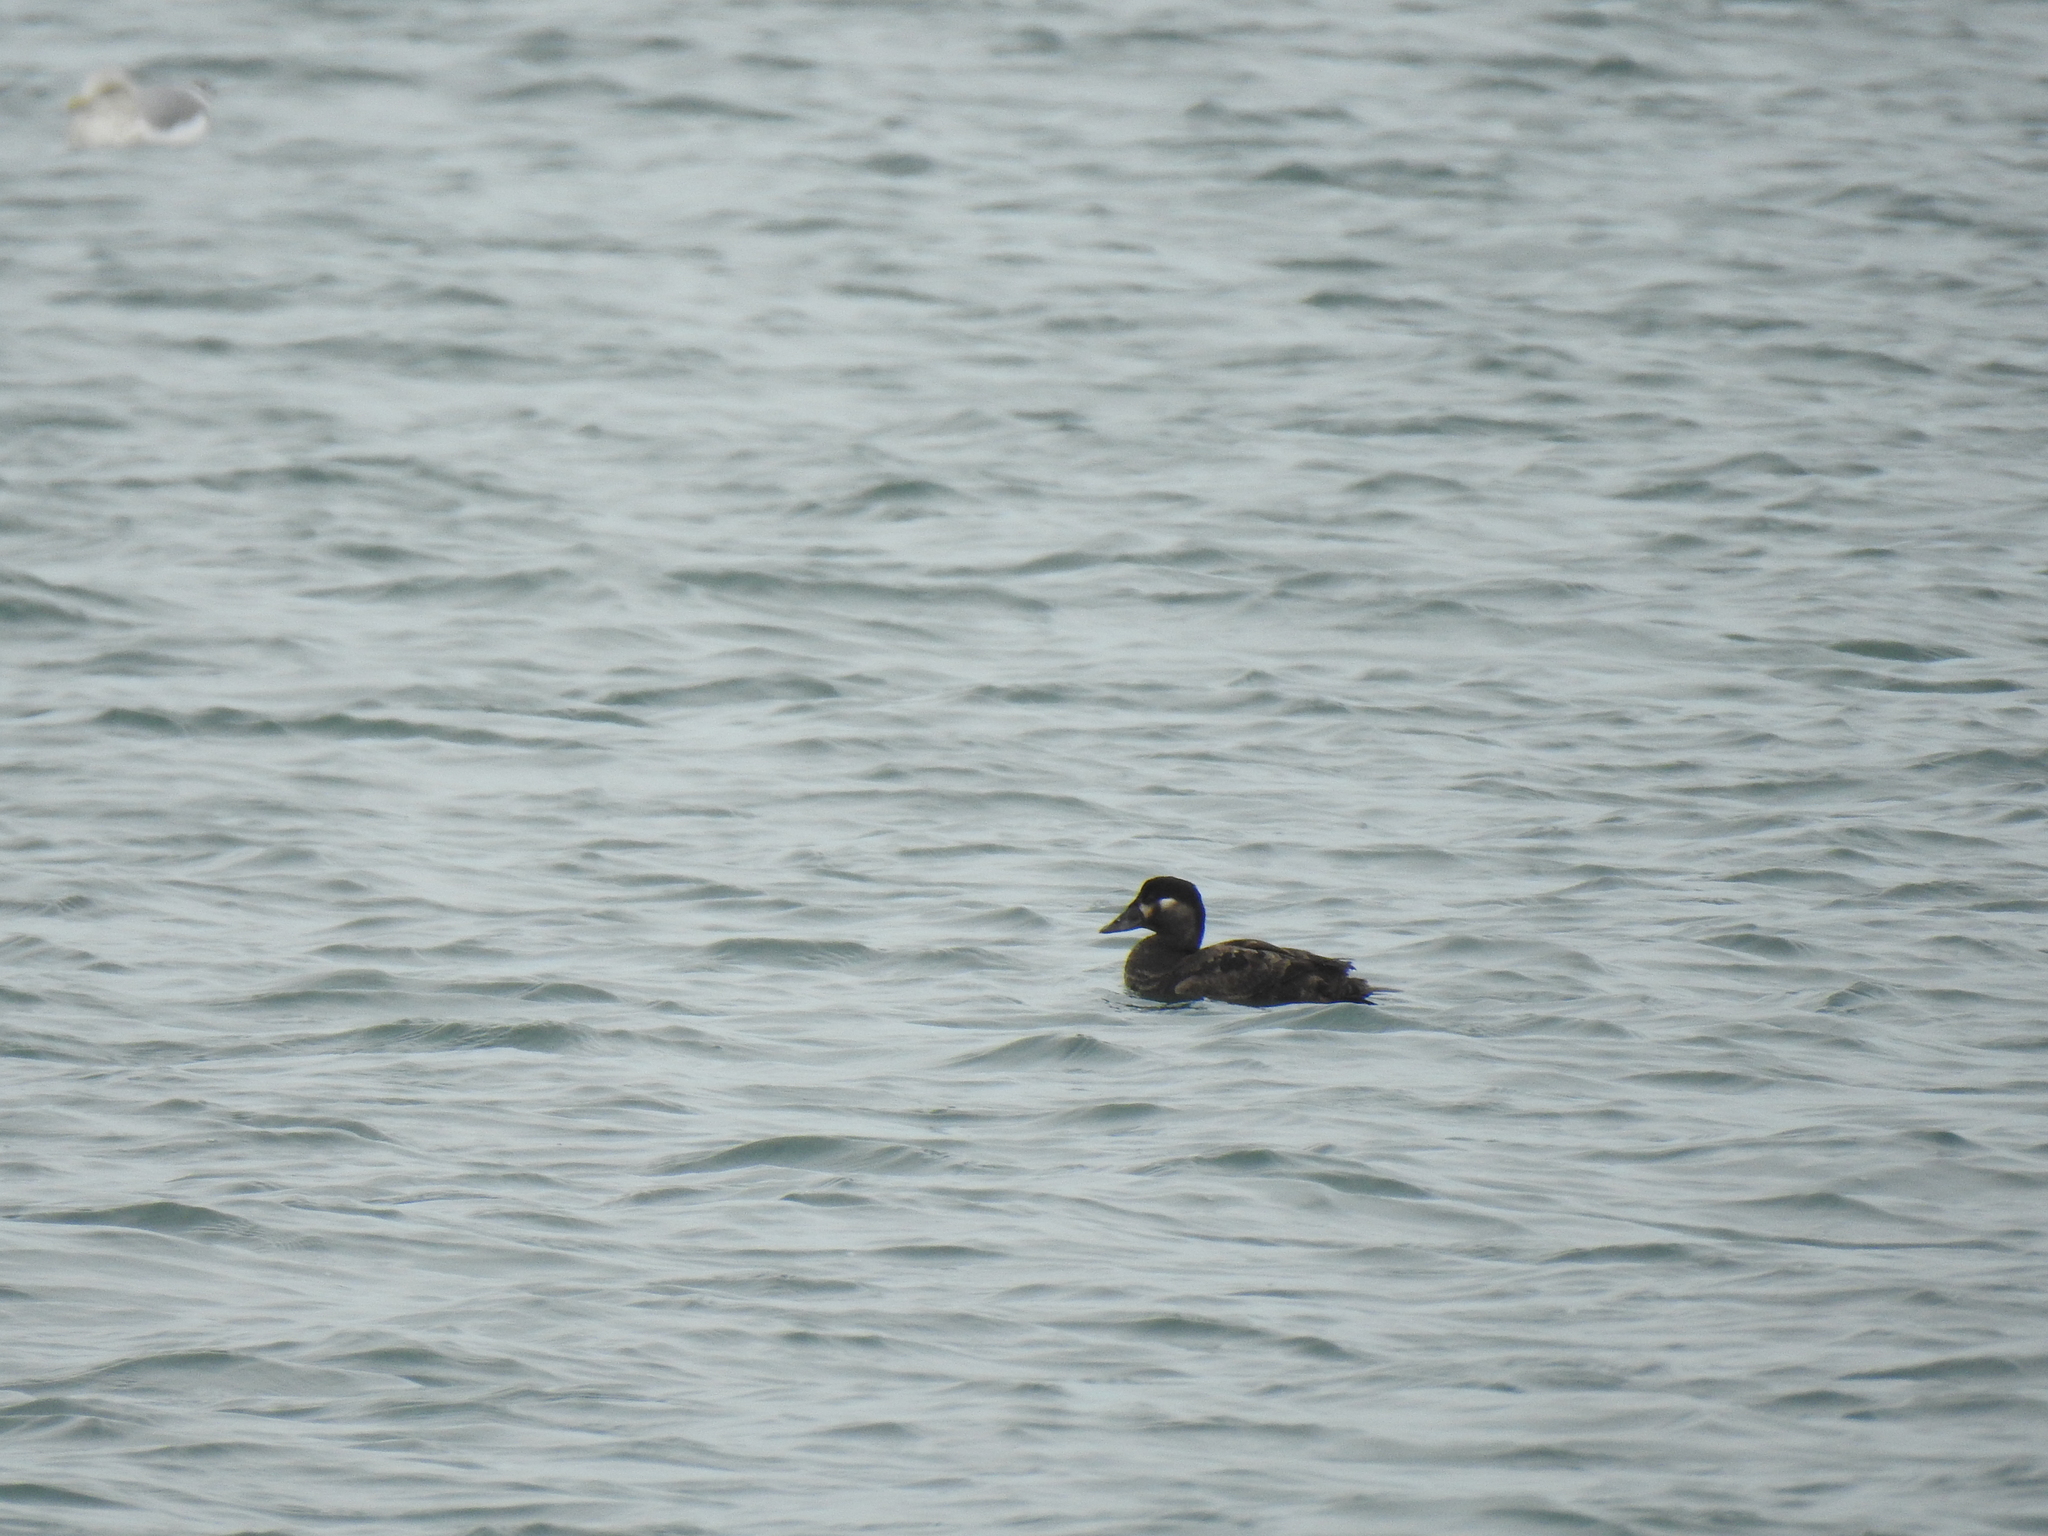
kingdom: Animalia
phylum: Chordata
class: Aves
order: Anseriformes
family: Anatidae
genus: Melanitta
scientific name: Melanitta perspicillata
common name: Surf scoter
